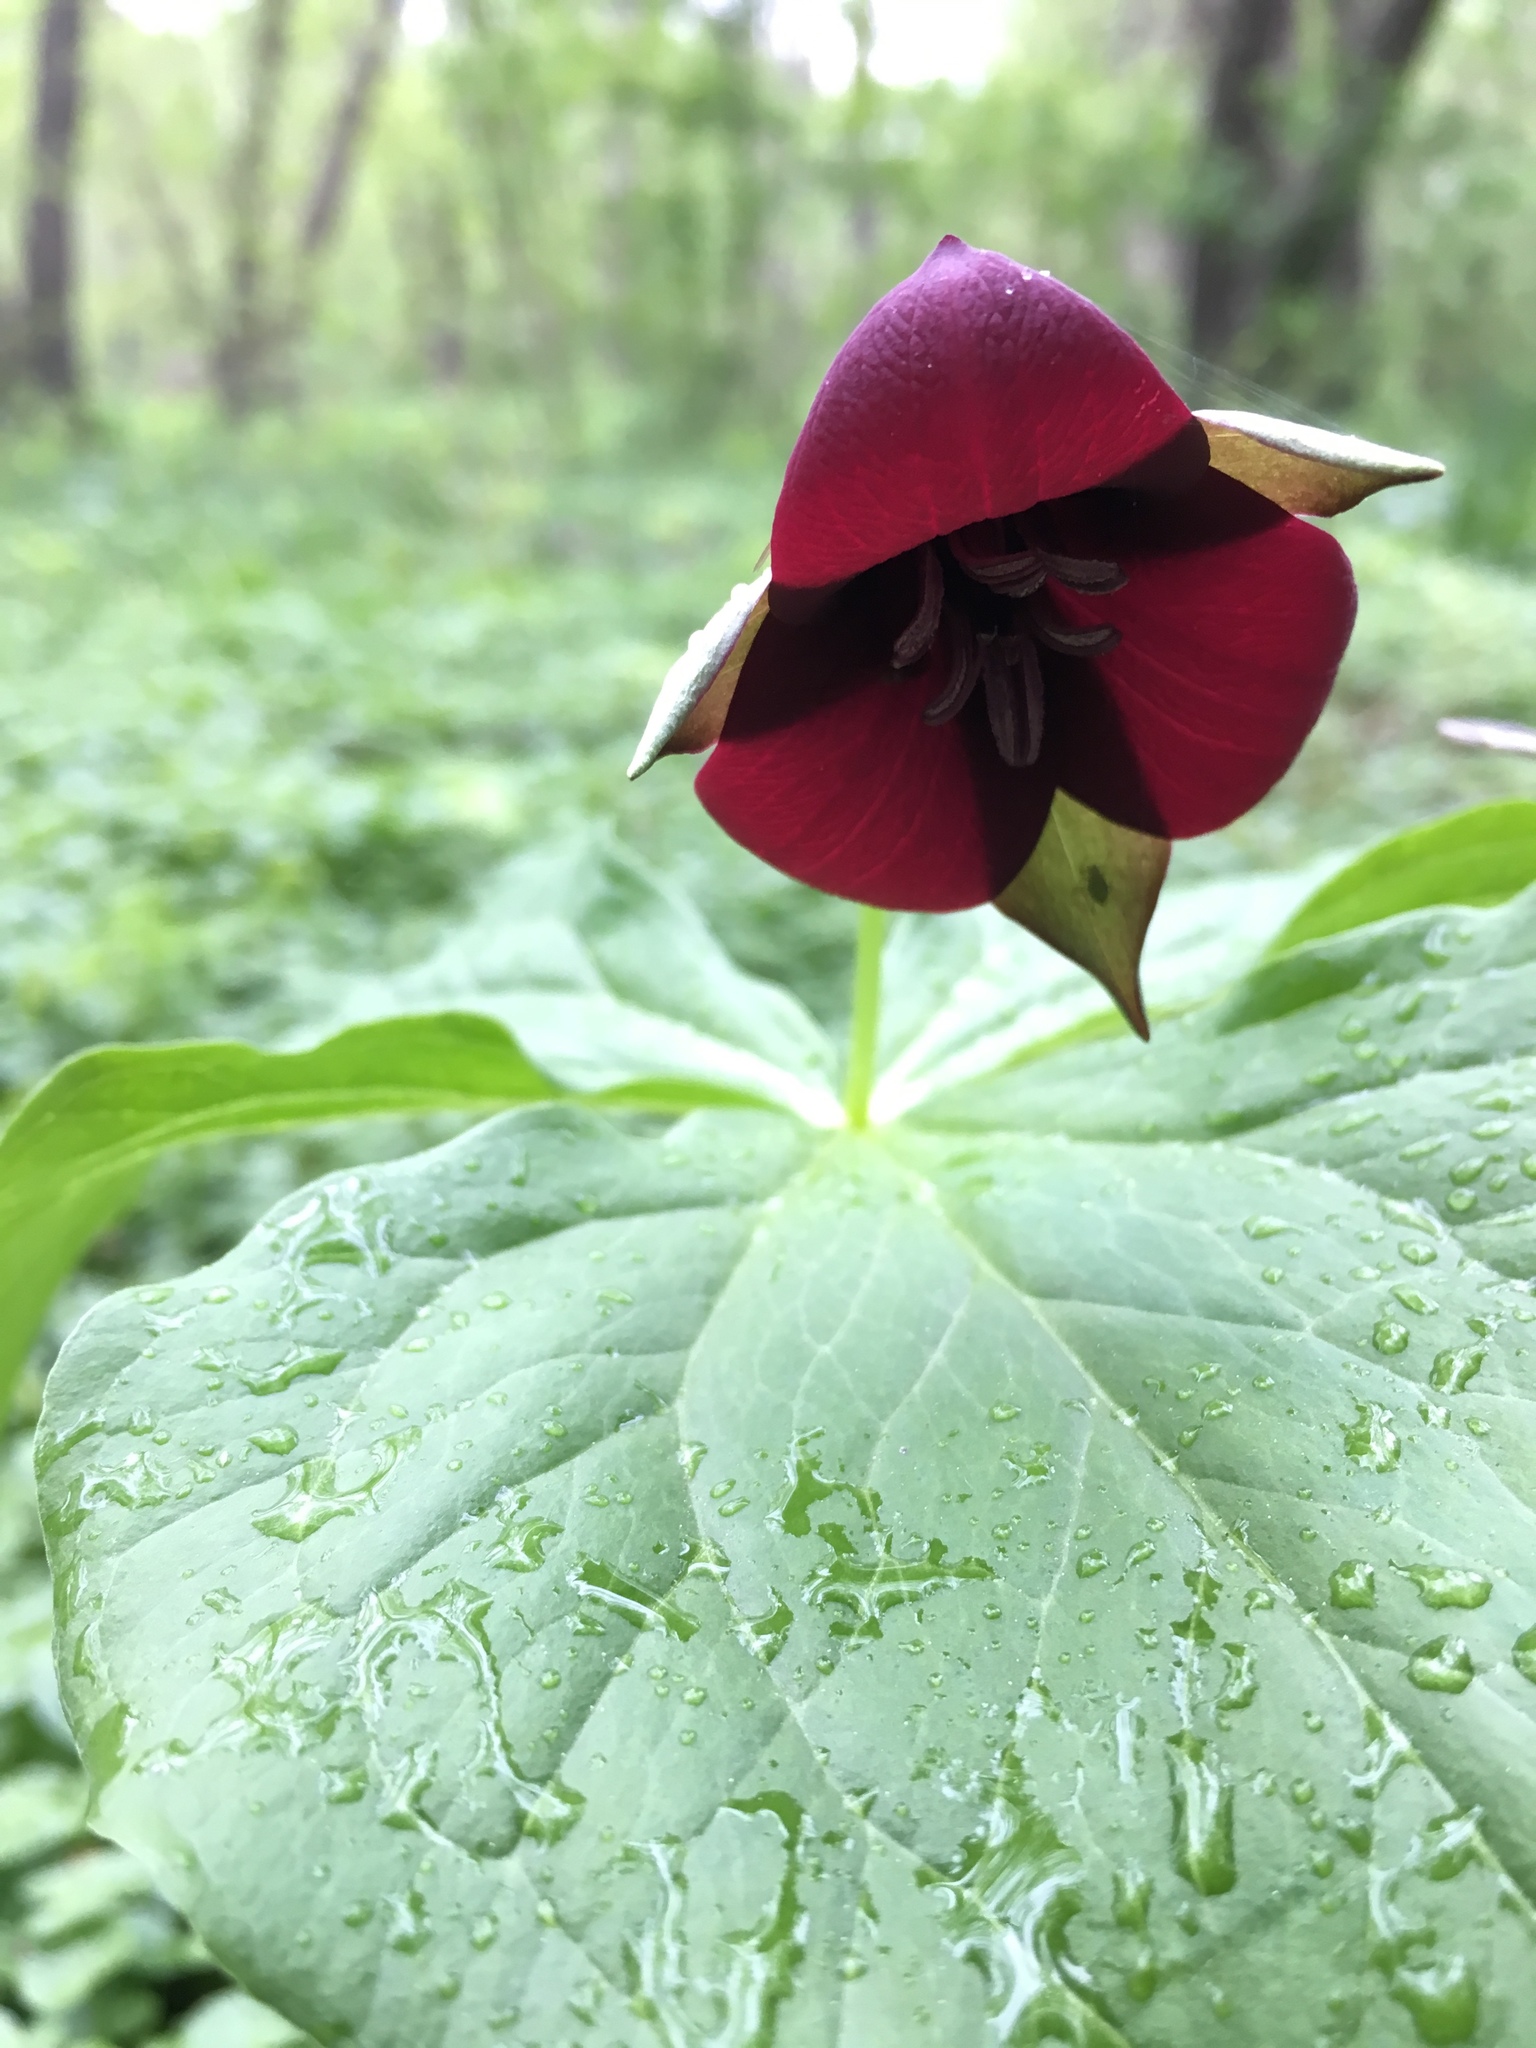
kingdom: Plantae
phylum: Tracheophyta
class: Liliopsida
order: Liliales
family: Melanthiaceae
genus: Trillium
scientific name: Trillium erectum
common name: Purple trillium
